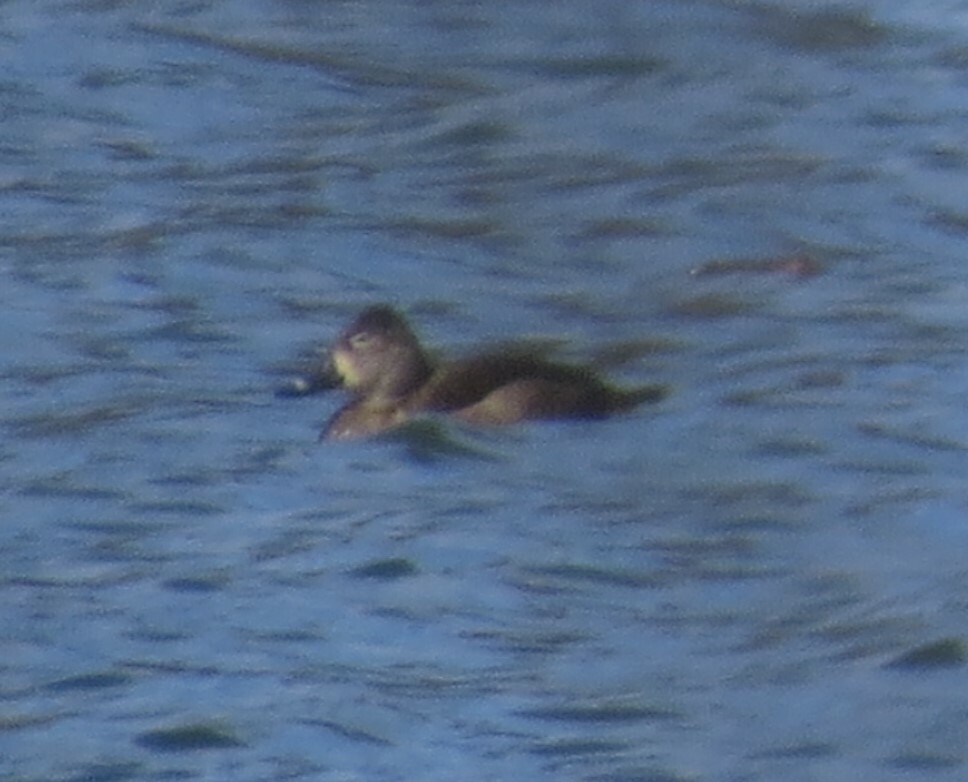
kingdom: Animalia
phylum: Chordata
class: Aves
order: Anseriformes
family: Anatidae
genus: Aythya
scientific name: Aythya collaris
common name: Ring-necked duck
